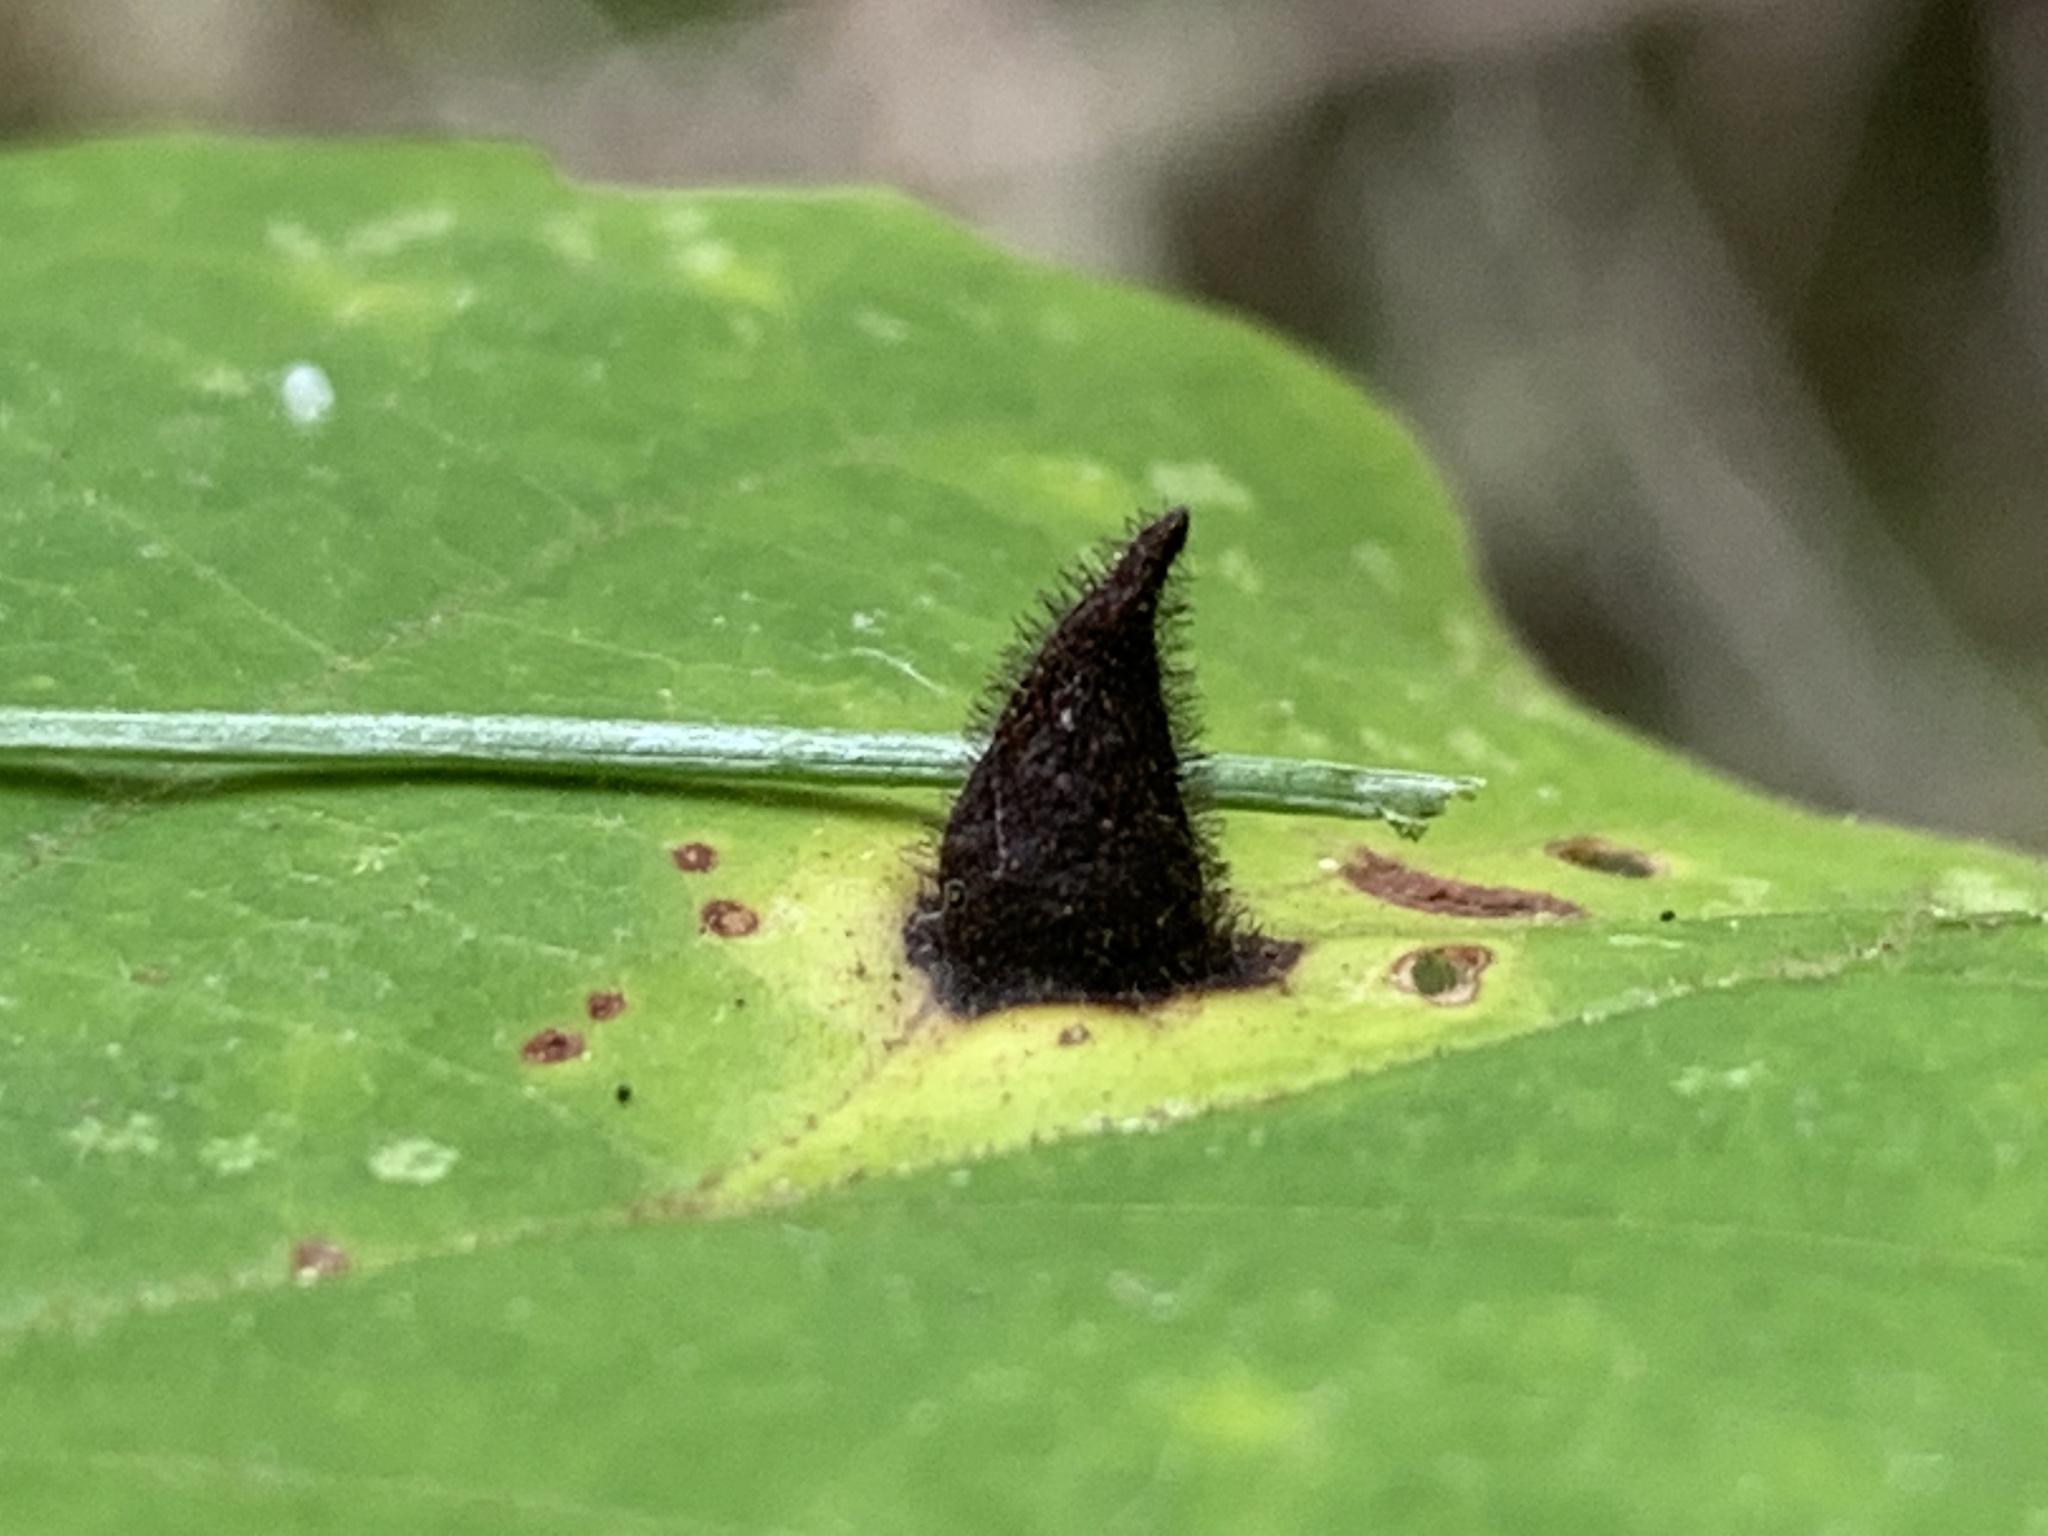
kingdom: Animalia
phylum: Arthropoda
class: Insecta
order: Hemiptera
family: Aphididae
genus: Hormaphis
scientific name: Hormaphis hamamelidis
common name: Witch-hazel cone gall aphid
